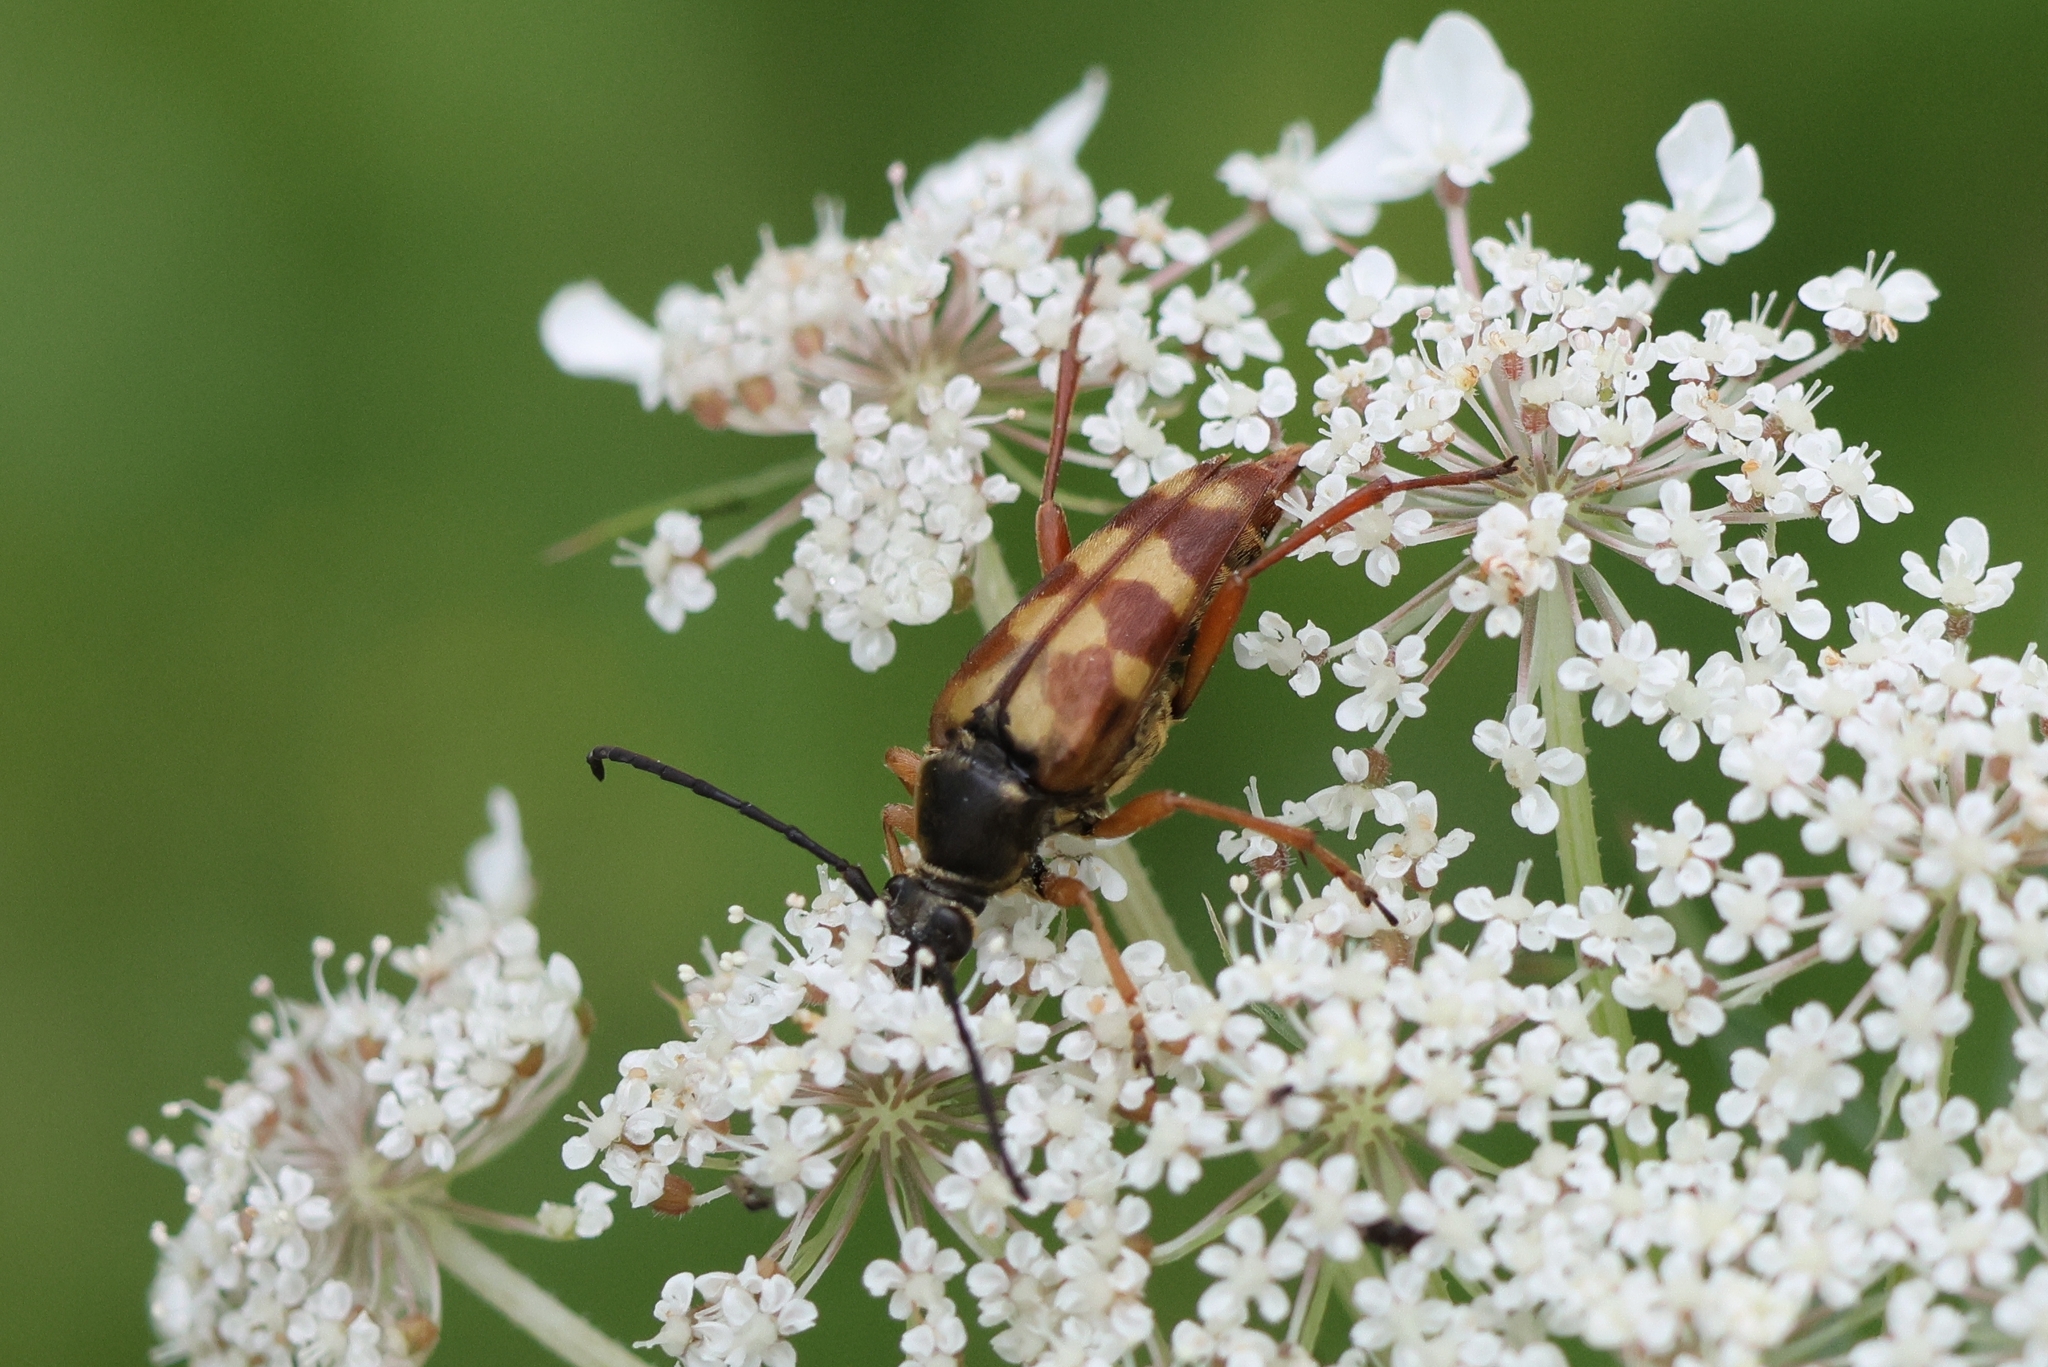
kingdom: Animalia
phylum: Arthropoda
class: Insecta
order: Coleoptera
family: Cerambycidae
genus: Typocerus
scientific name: Typocerus velutinus
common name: Banded longhorn beetle
